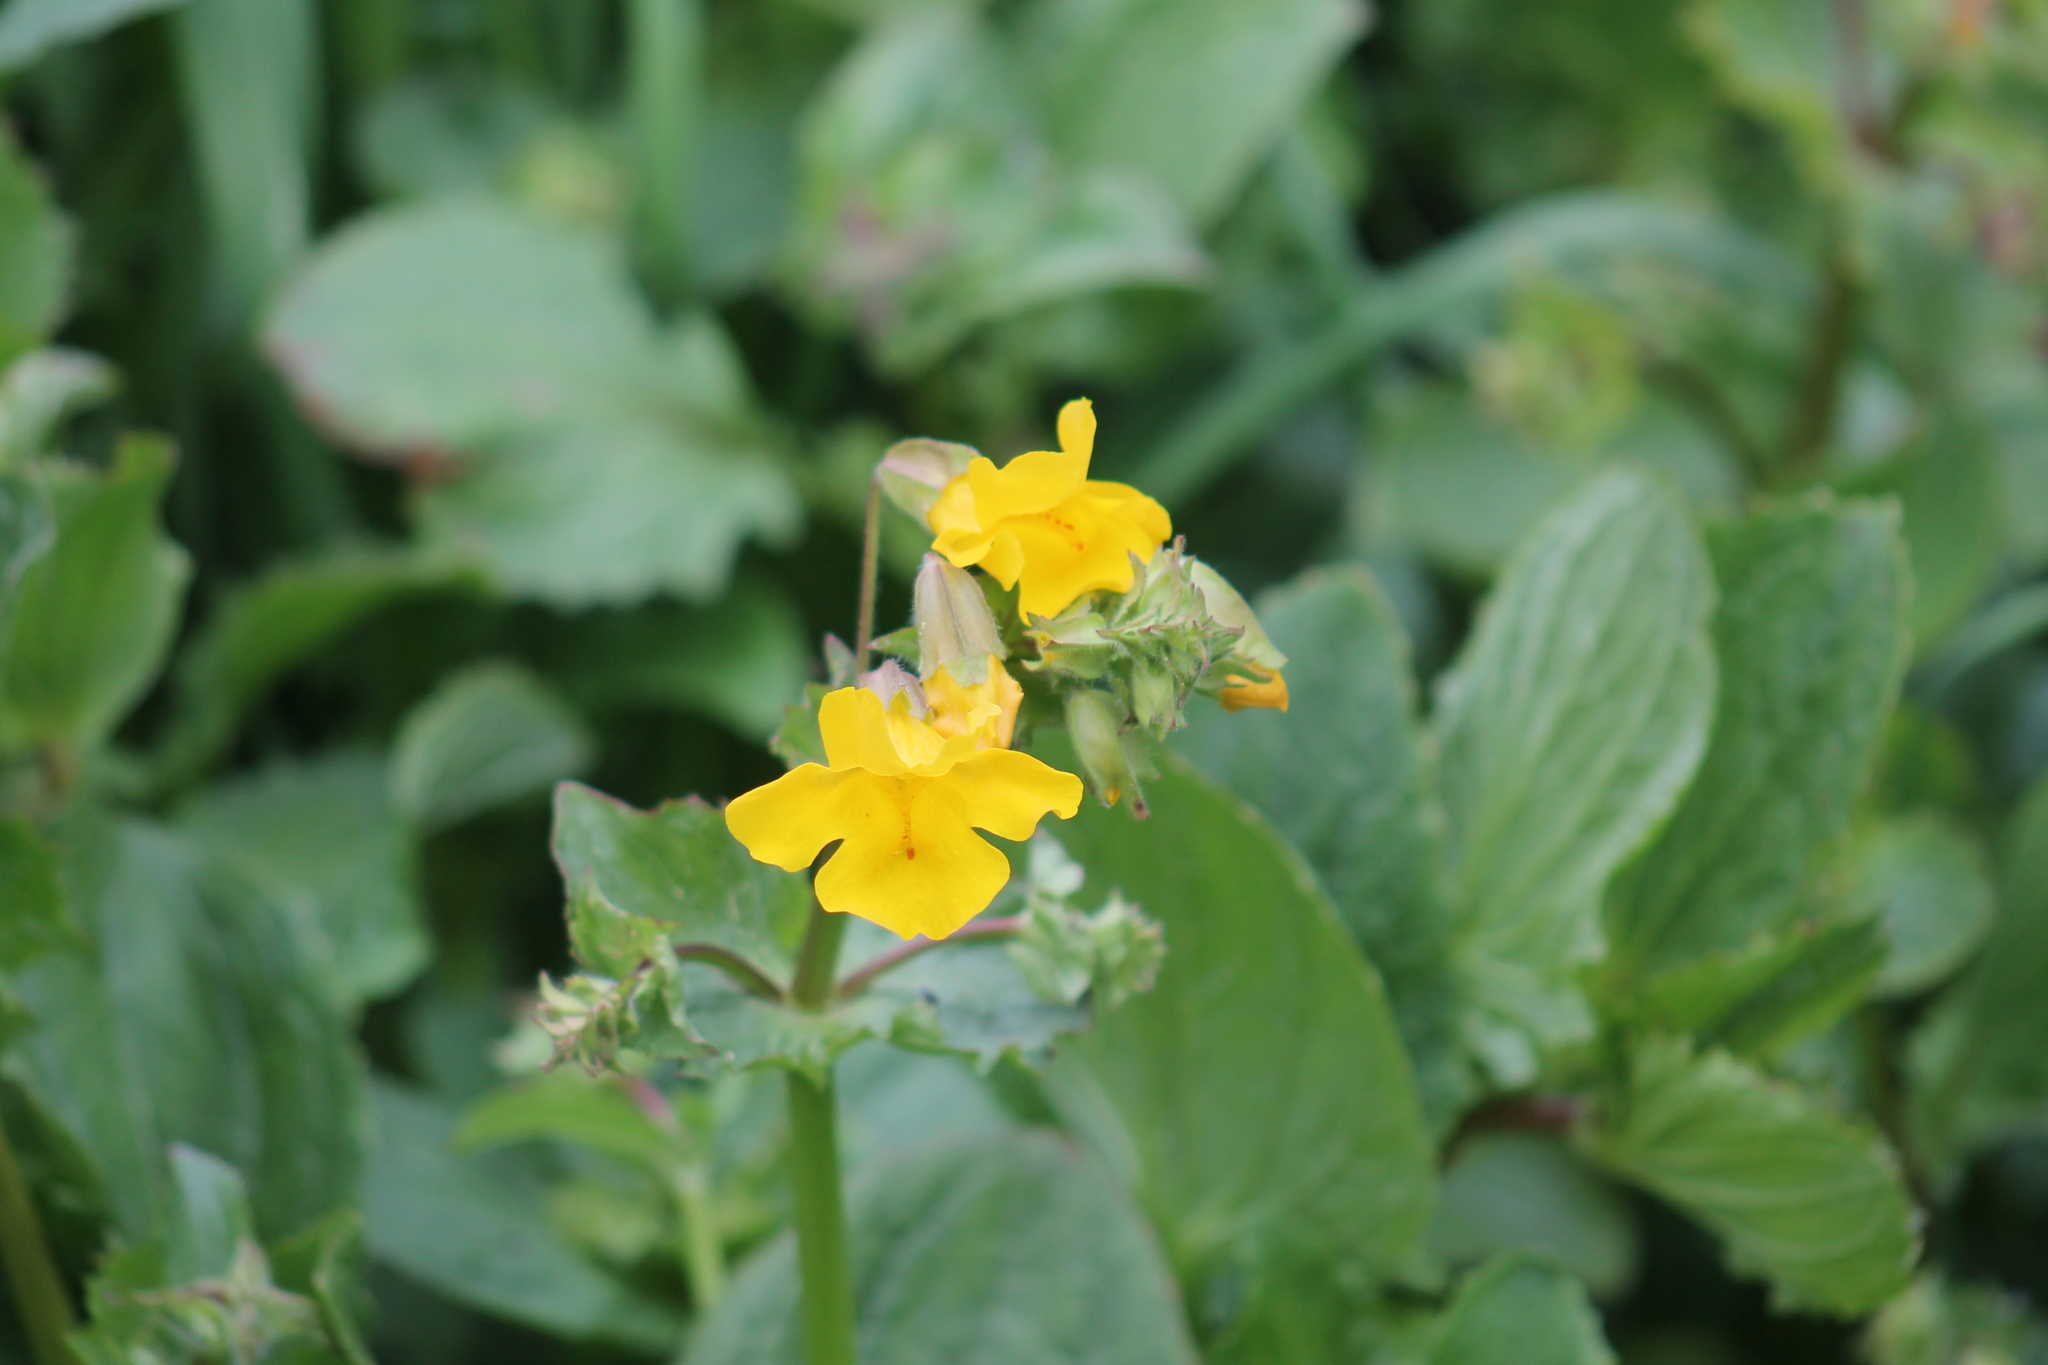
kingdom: Plantae
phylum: Tracheophyta
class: Magnoliopsida
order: Lamiales
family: Phrymaceae
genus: Erythranthe
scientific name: Erythranthe guttata
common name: Monkeyflower
